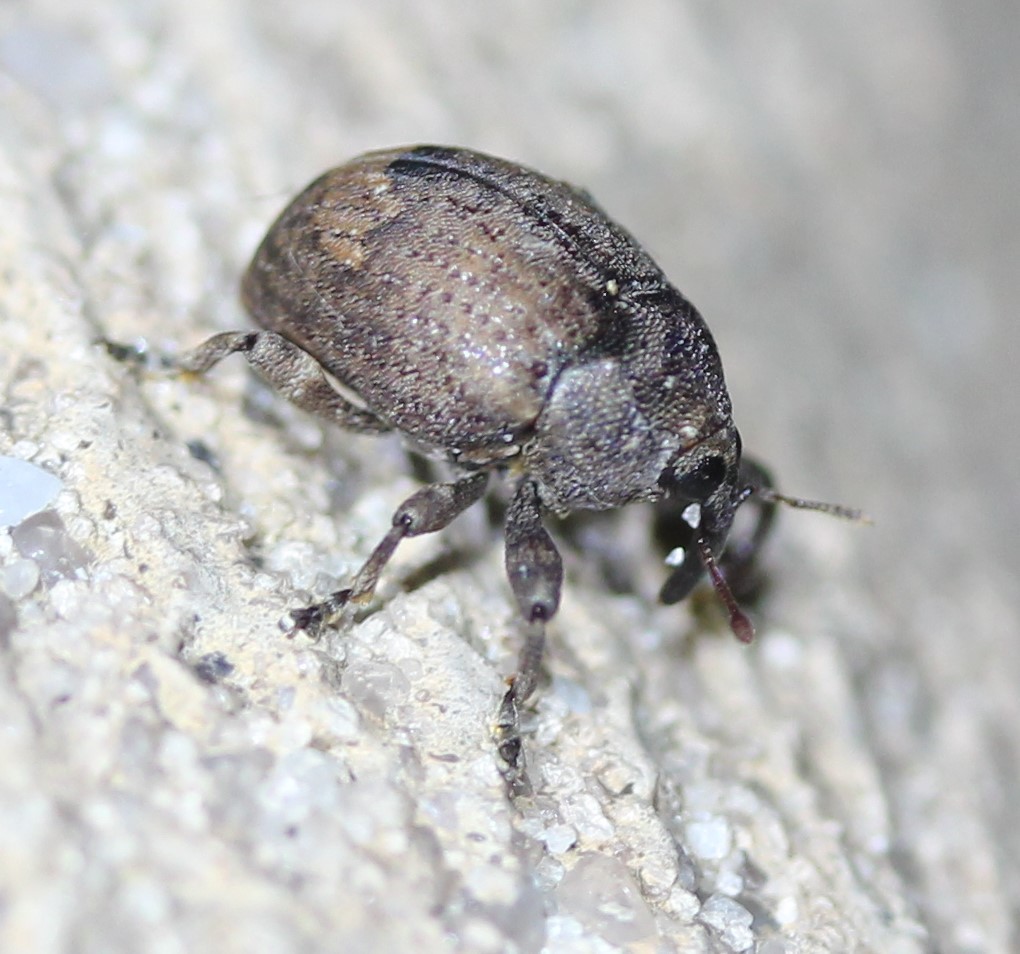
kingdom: Animalia
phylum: Arthropoda
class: Insecta
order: Coleoptera
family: Curculionidae
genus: Pseudomopsis
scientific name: Pseudomopsis inflatus
